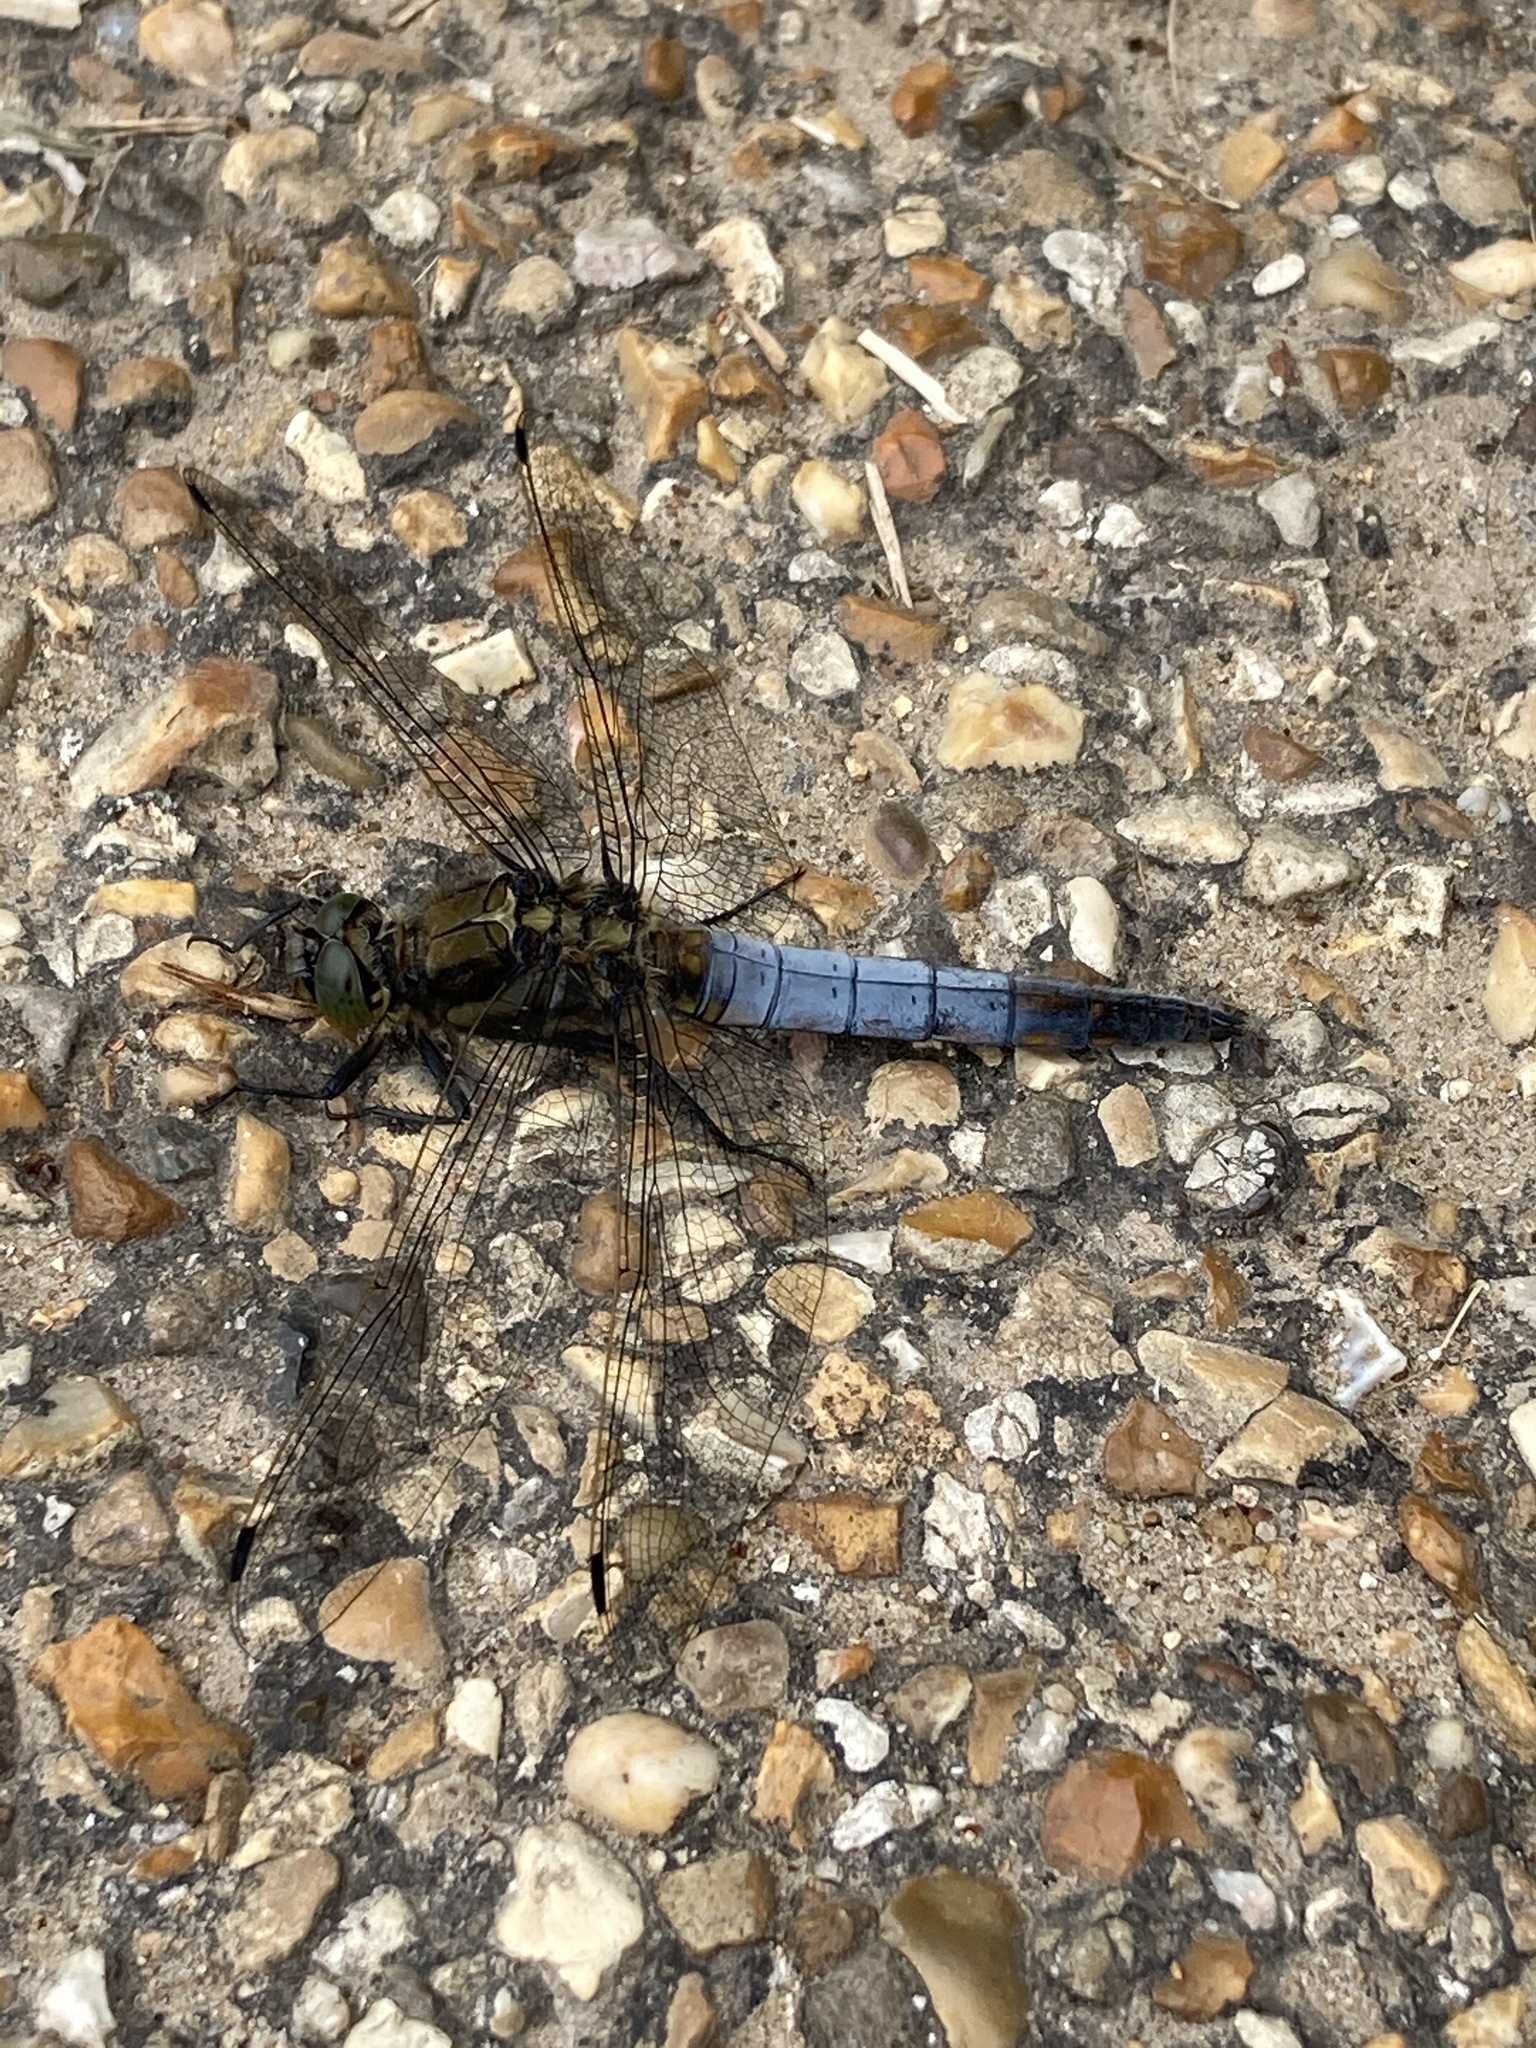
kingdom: Animalia
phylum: Arthropoda
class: Insecta
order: Odonata
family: Libellulidae
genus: Orthetrum
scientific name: Orthetrum cancellatum
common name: Black-tailed skimmer
